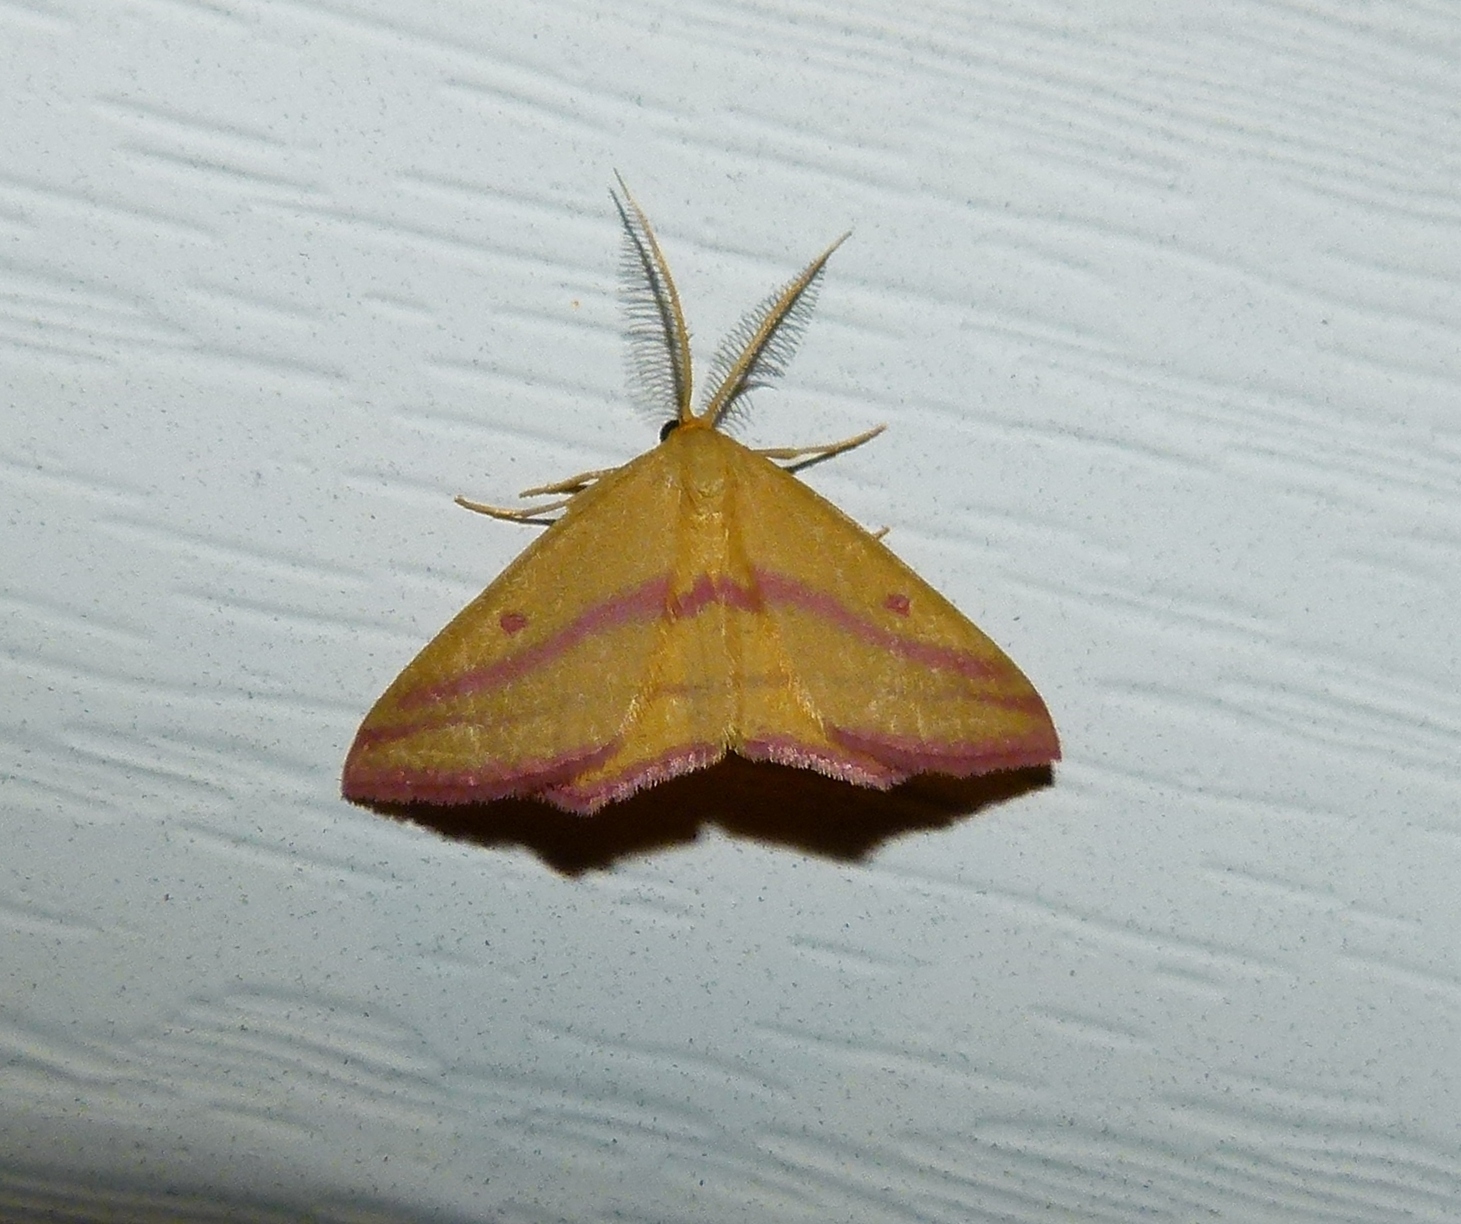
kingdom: Animalia
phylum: Arthropoda
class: Insecta
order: Lepidoptera
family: Geometridae
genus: Haematopis
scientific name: Haematopis grataria
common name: Chickweed geometer
